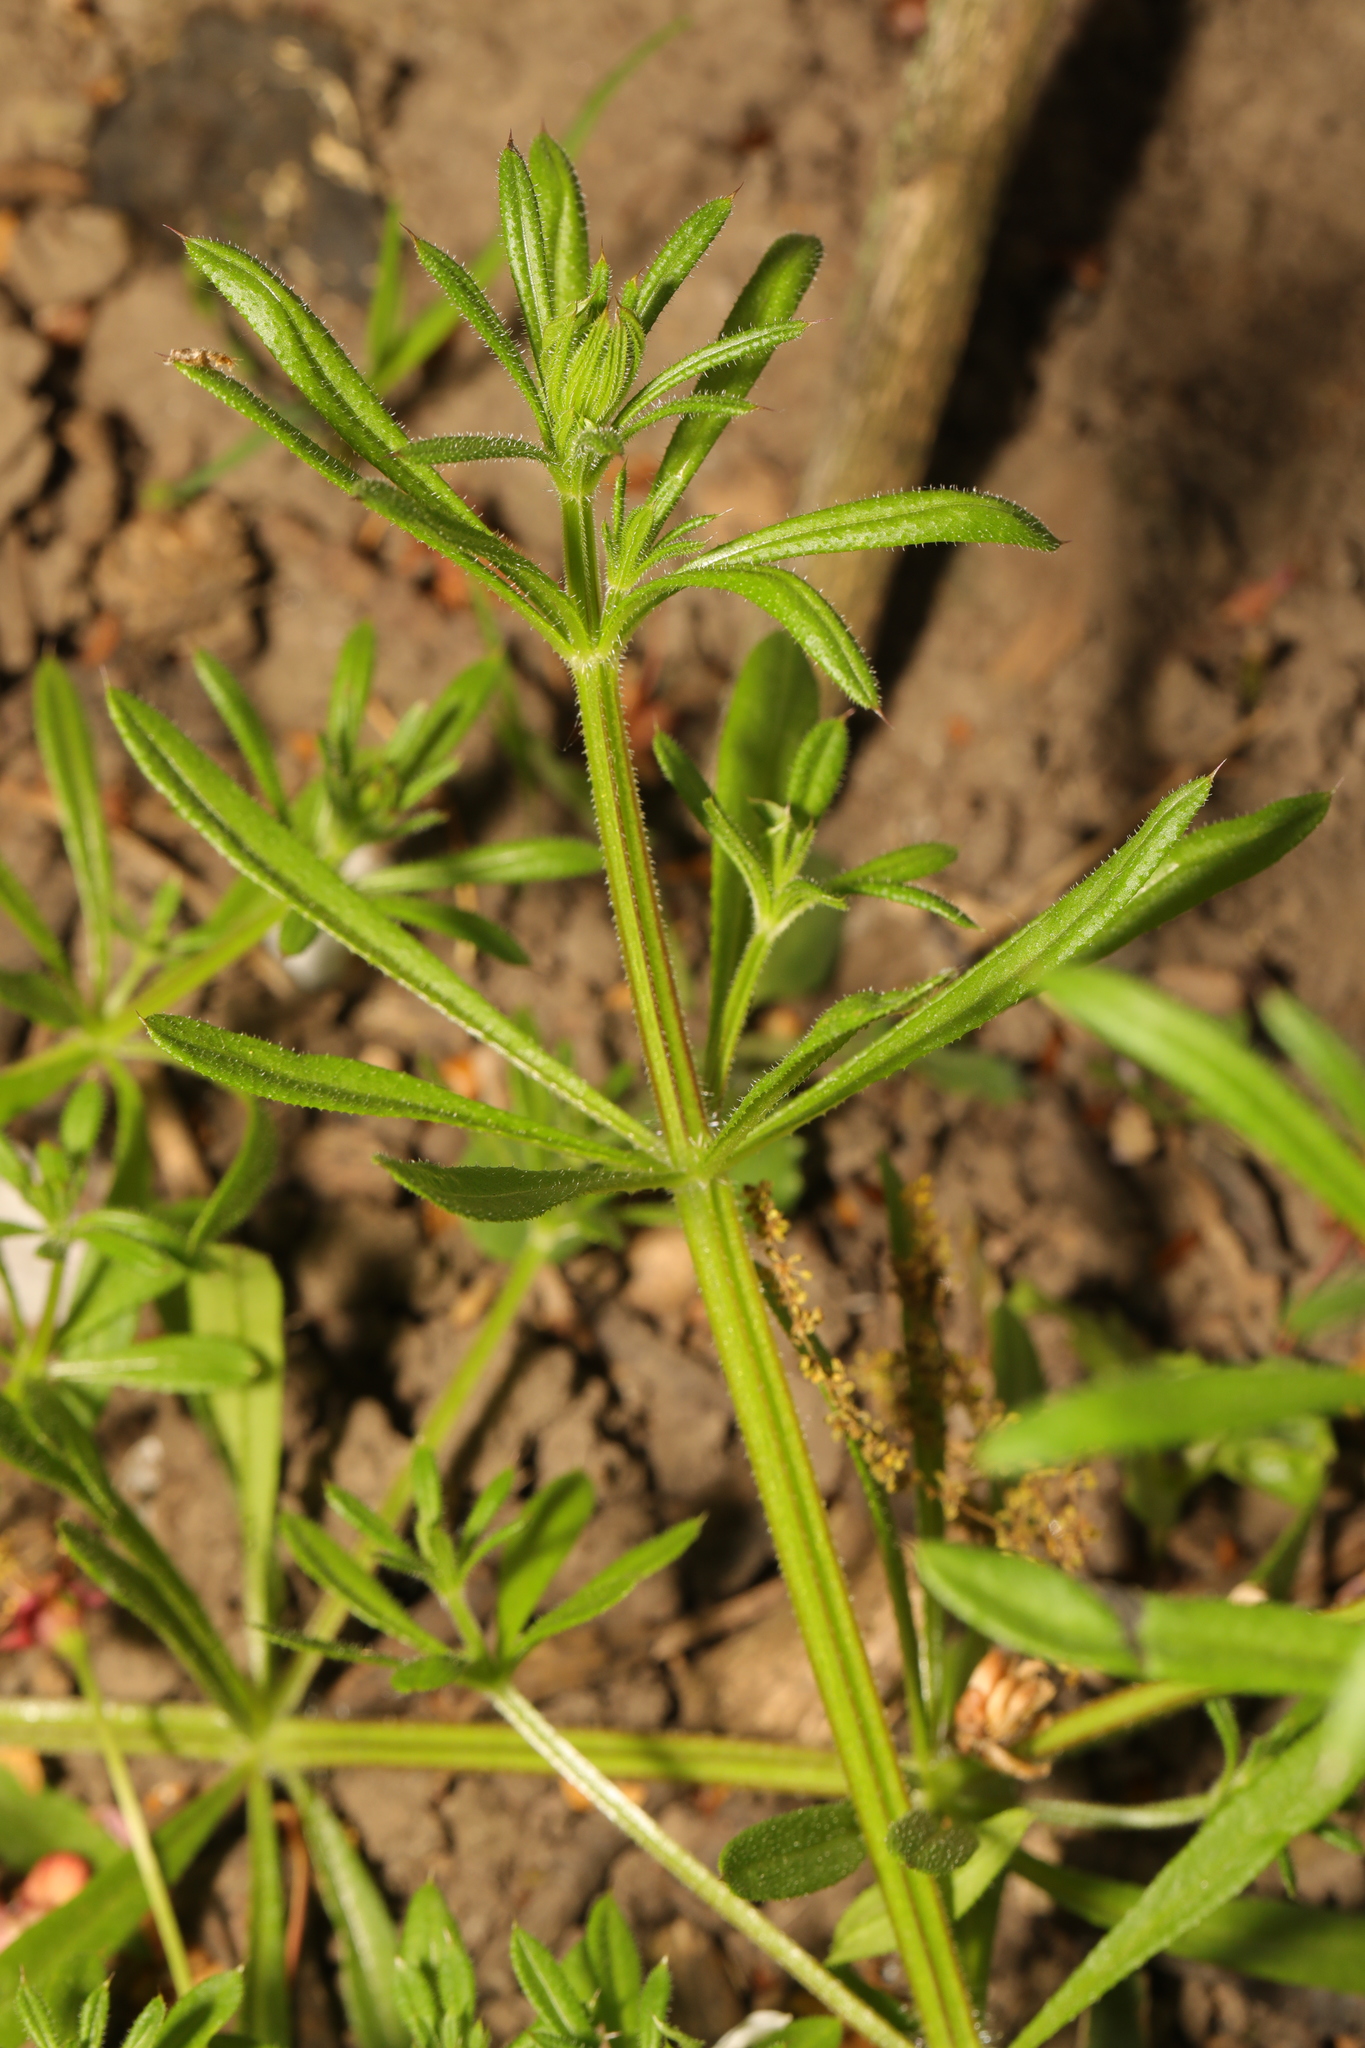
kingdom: Plantae
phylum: Tracheophyta
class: Magnoliopsida
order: Gentianales
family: Rubiaceae
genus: Galium
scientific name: Galium aparine
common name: Cleavers
